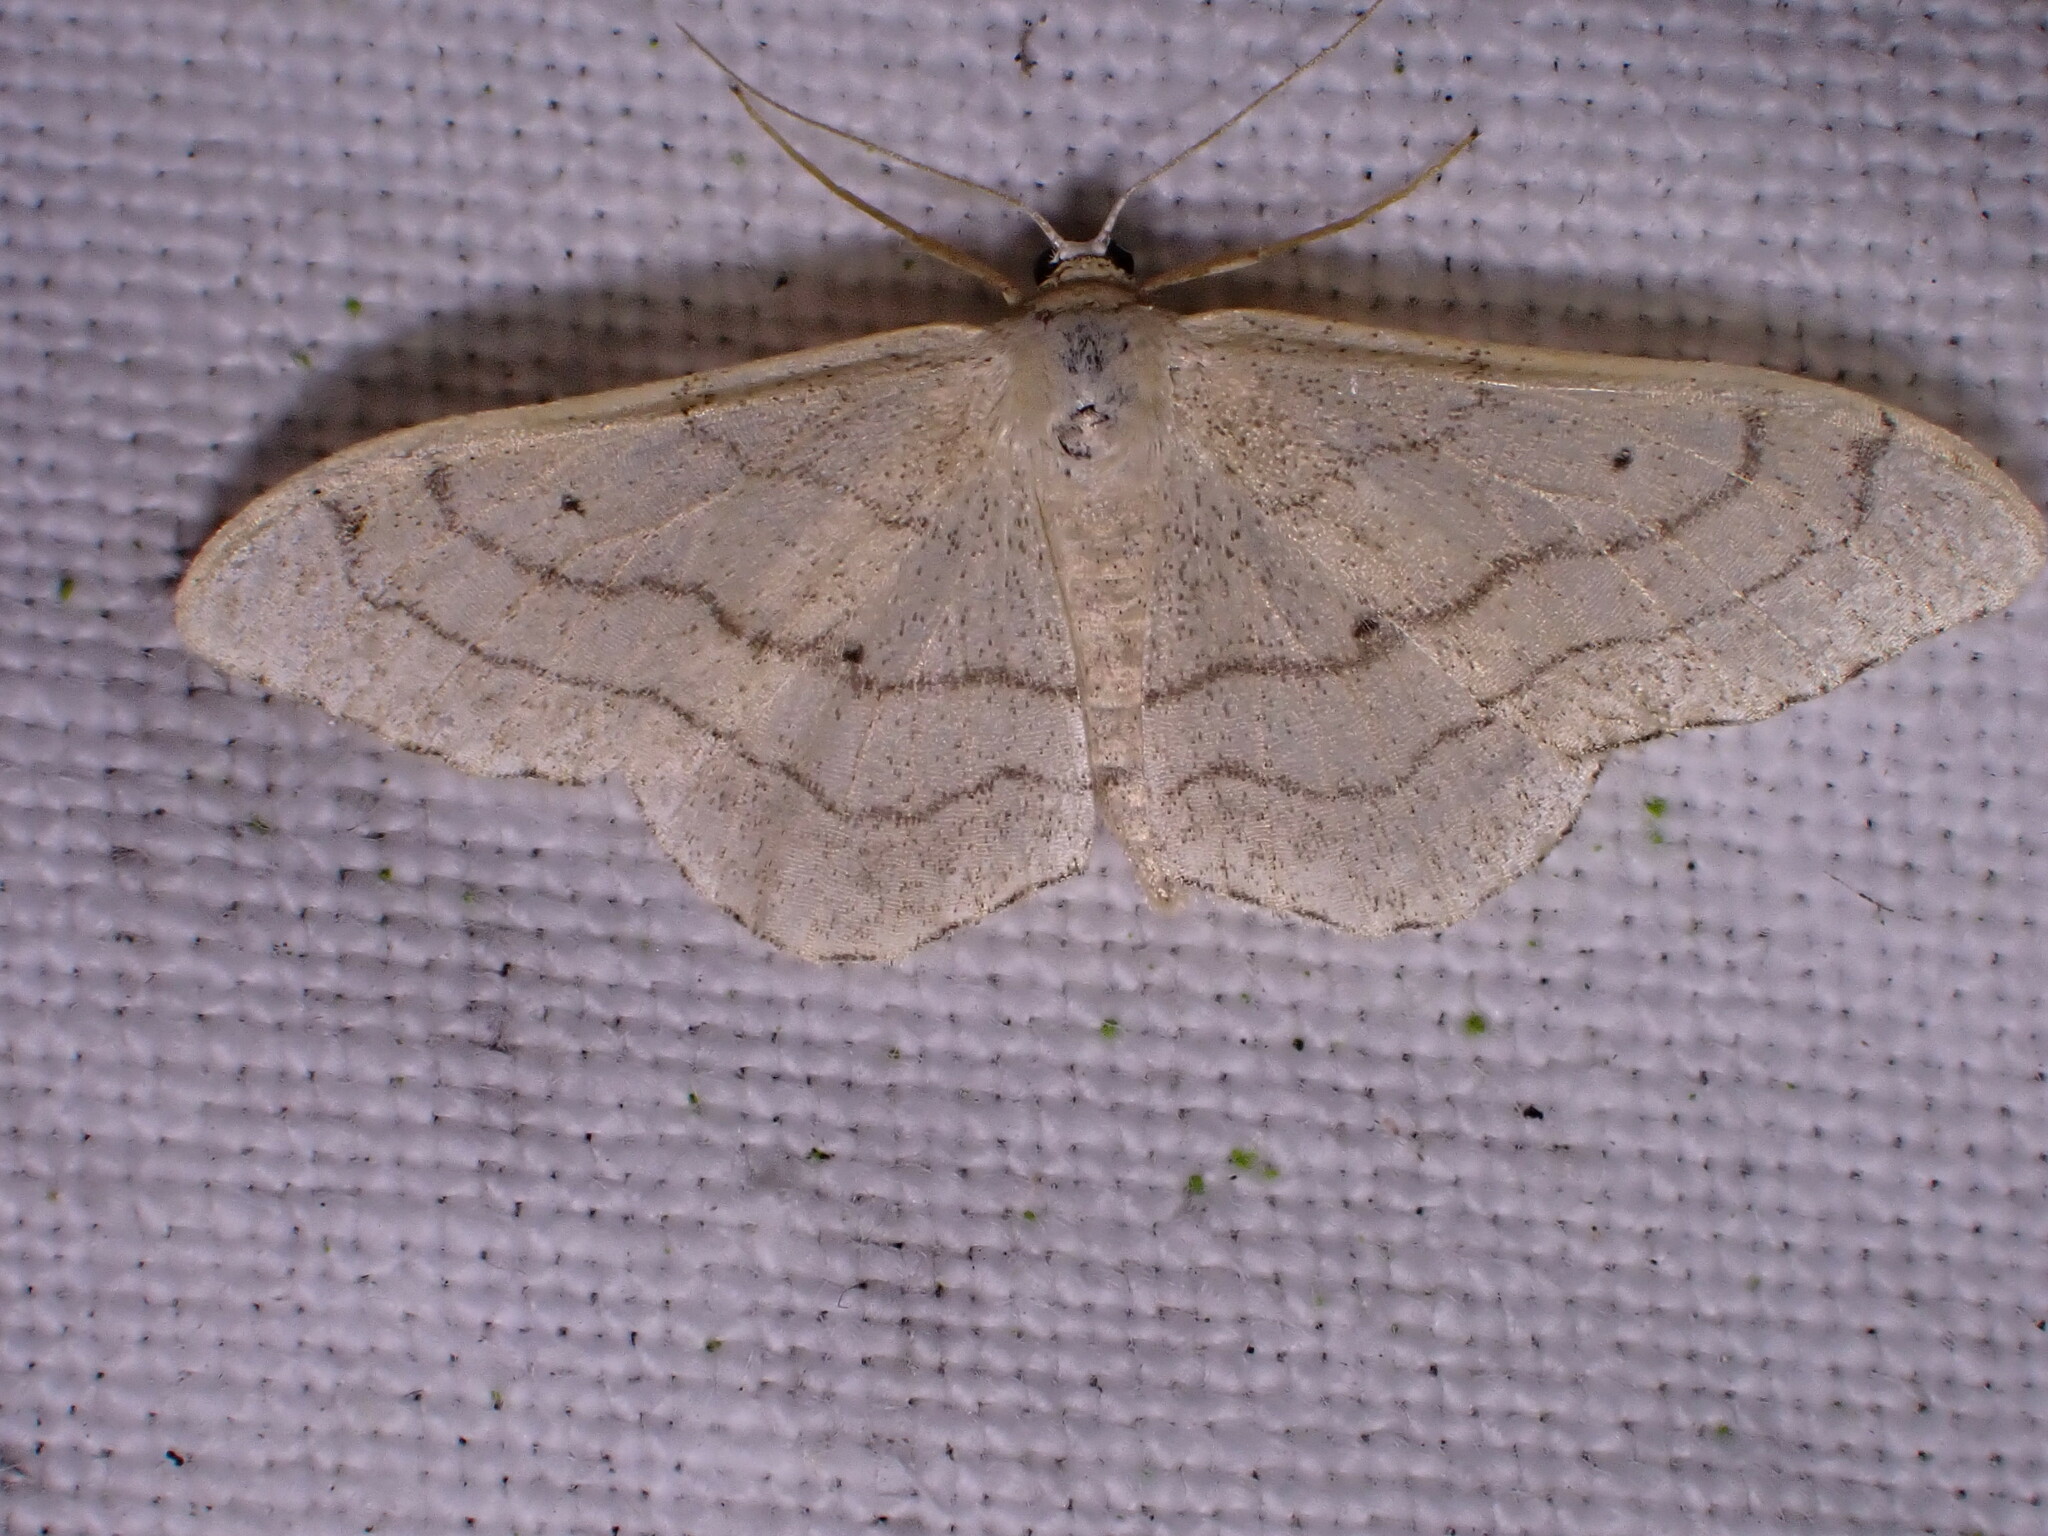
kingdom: Animalia
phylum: Arthropoda
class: Insecta
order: Lepidoptera
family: Geometridae
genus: Idaea
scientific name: Idaea aversata
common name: Riband wave
